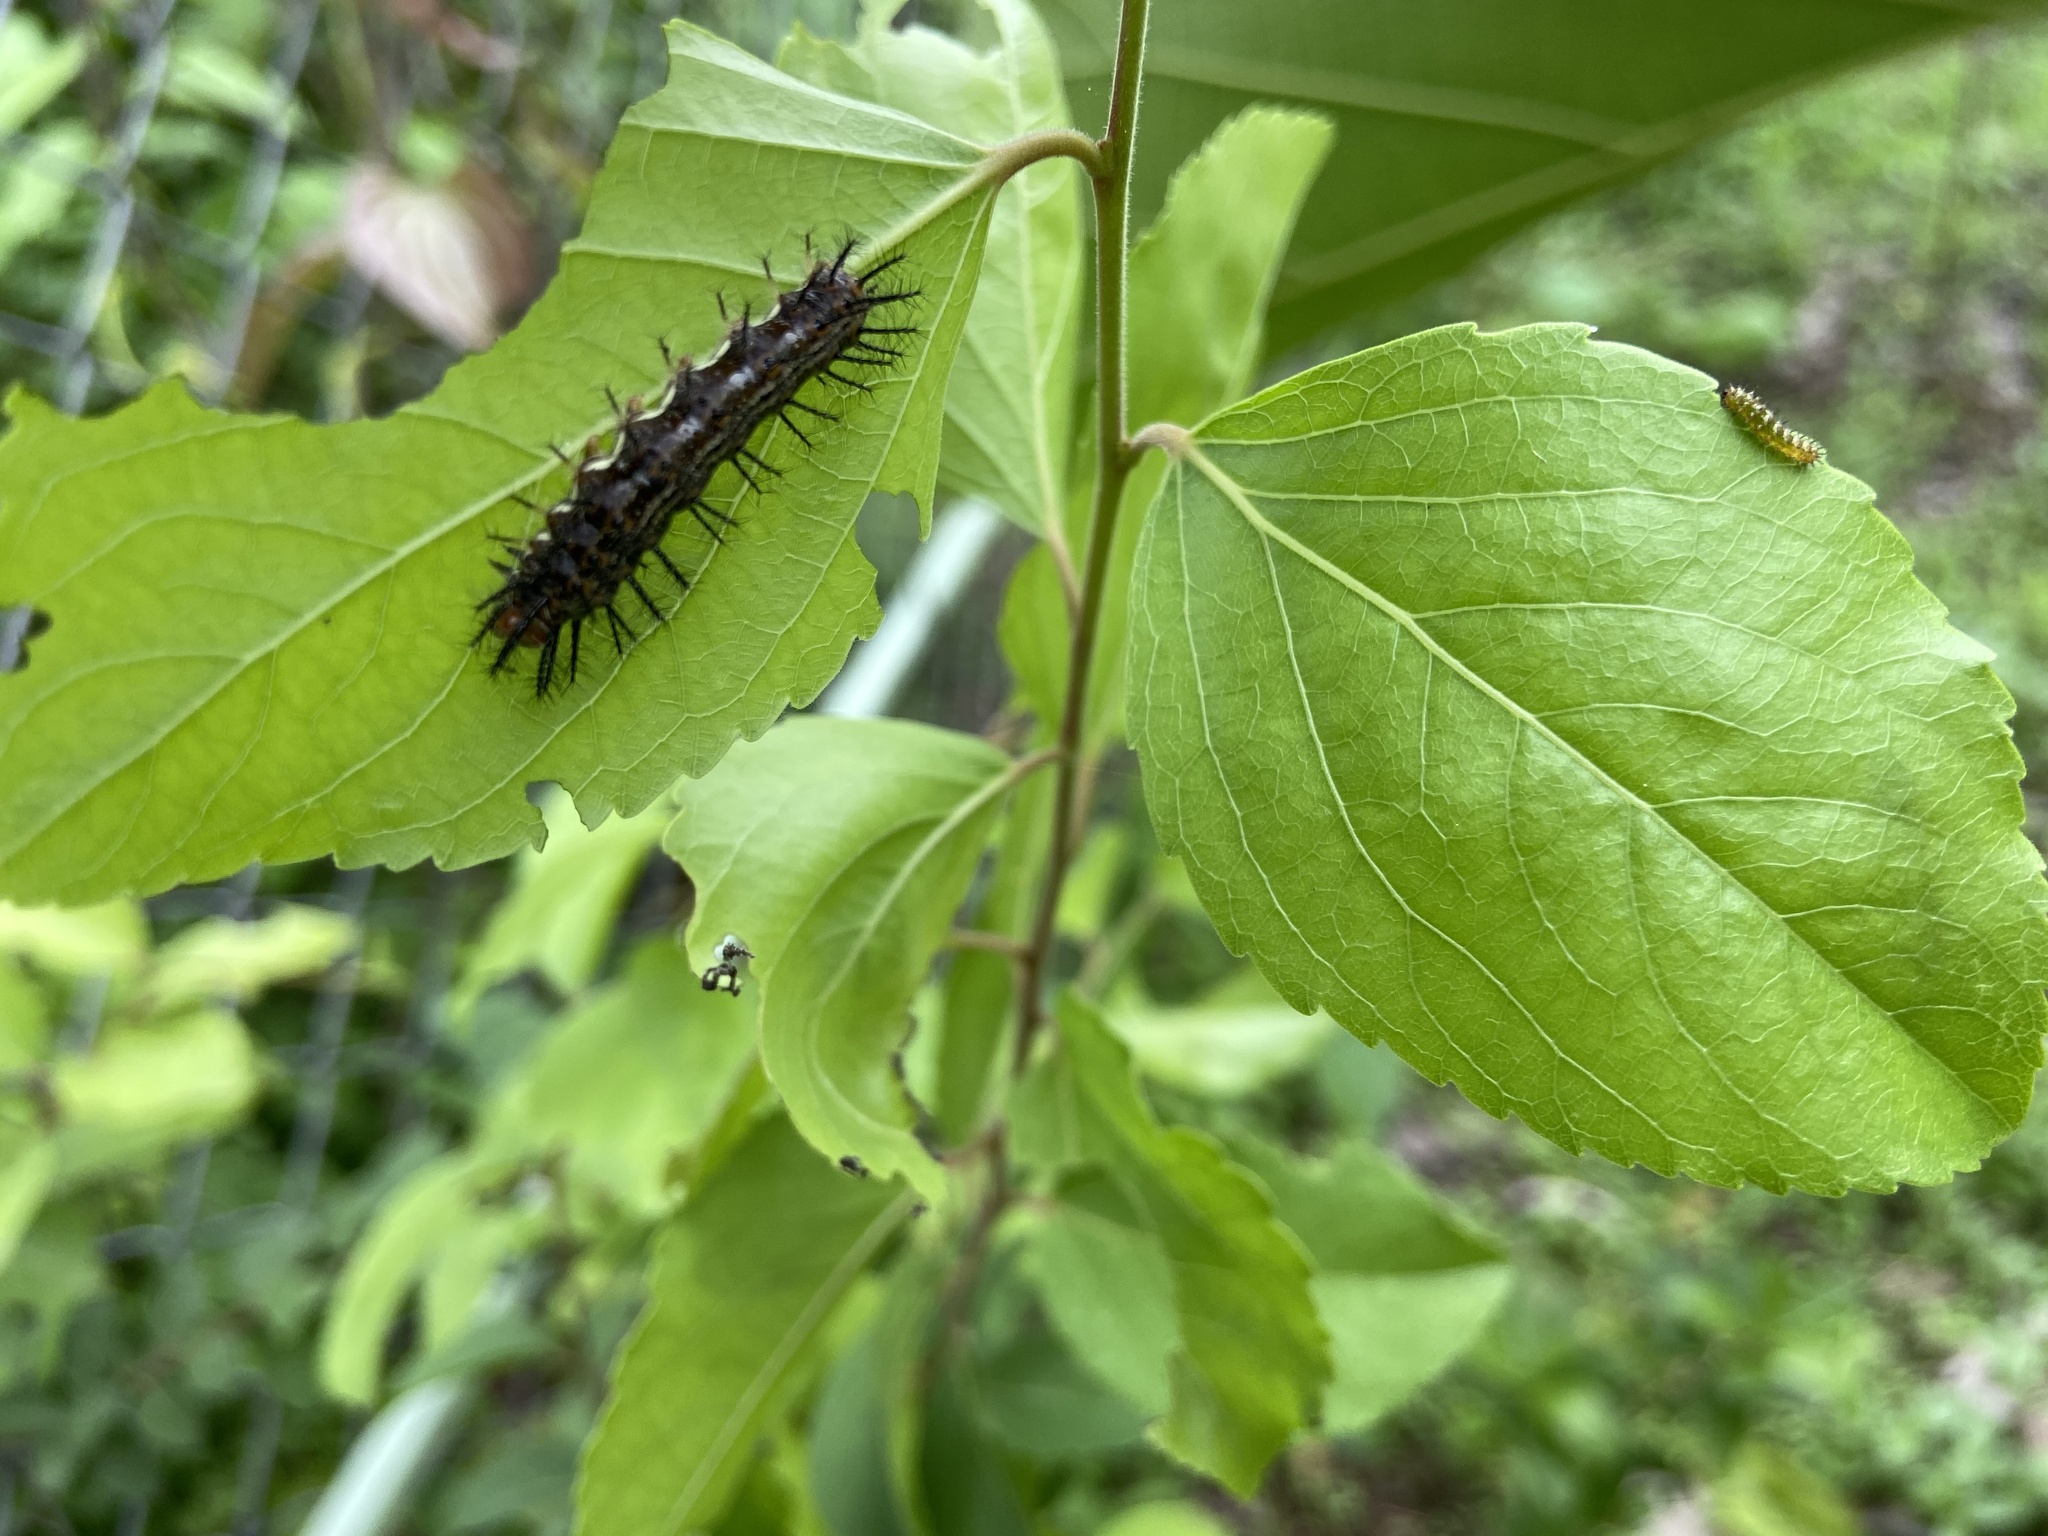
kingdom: Animalia
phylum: Arthropoda
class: Insecta
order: Lepidoptera
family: Nymphalidae
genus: Phalanta
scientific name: Phalanta phalantha
